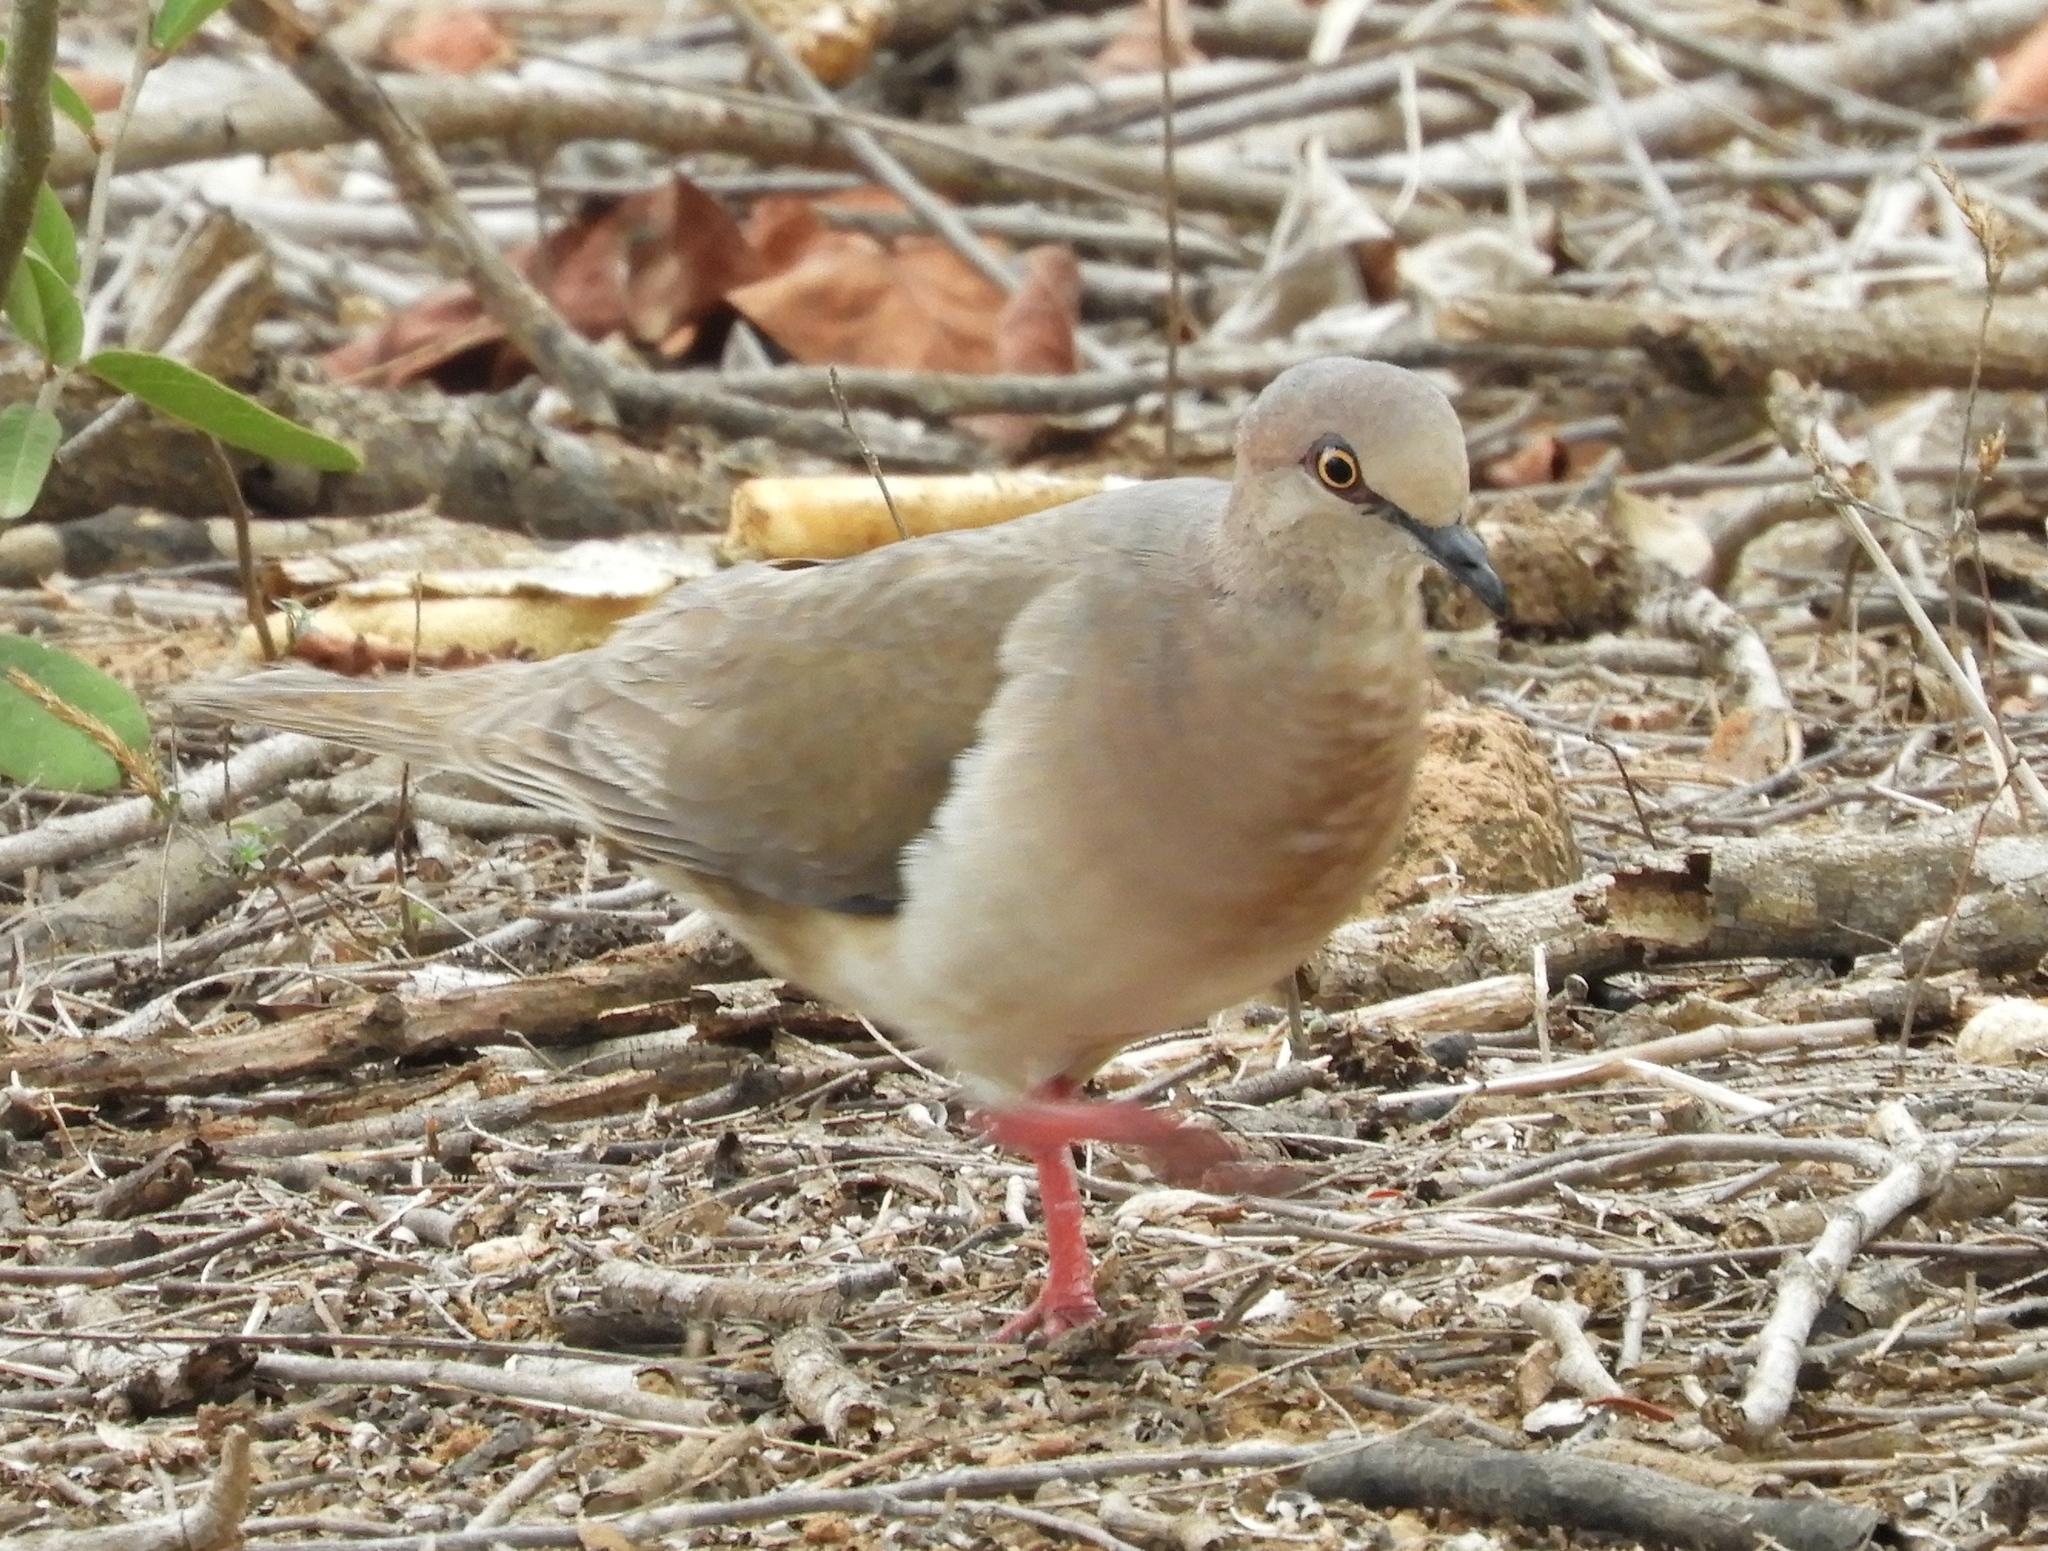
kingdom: Animalia
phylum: Chordata
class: Aves
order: Columbiformes
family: Columbidae
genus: Leptotila
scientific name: Leptotila verreauxi
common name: White-tipped dove
